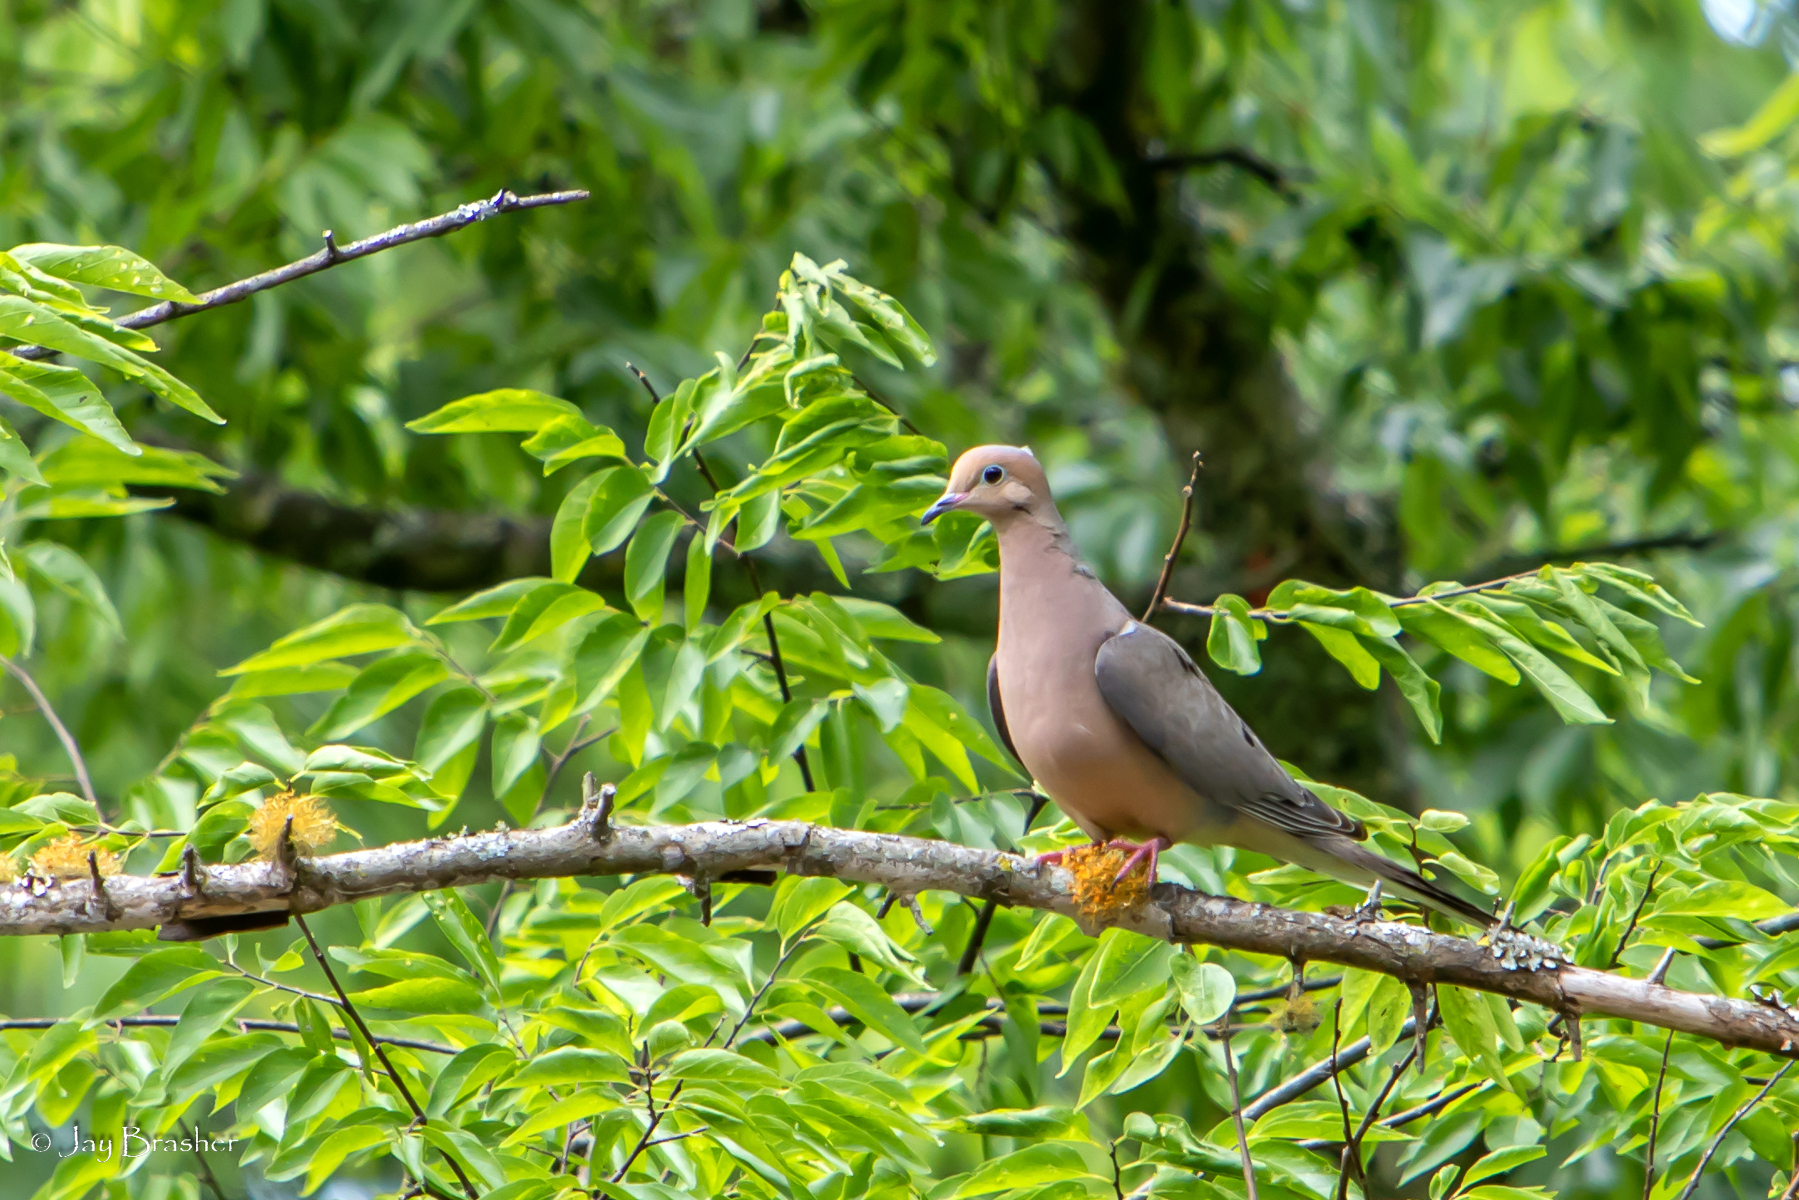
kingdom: Animalia
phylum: Chordata
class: Aves
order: Columbiformes
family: Columbidae
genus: Zenaida
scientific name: Zenaida macroura
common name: Mourning dove
